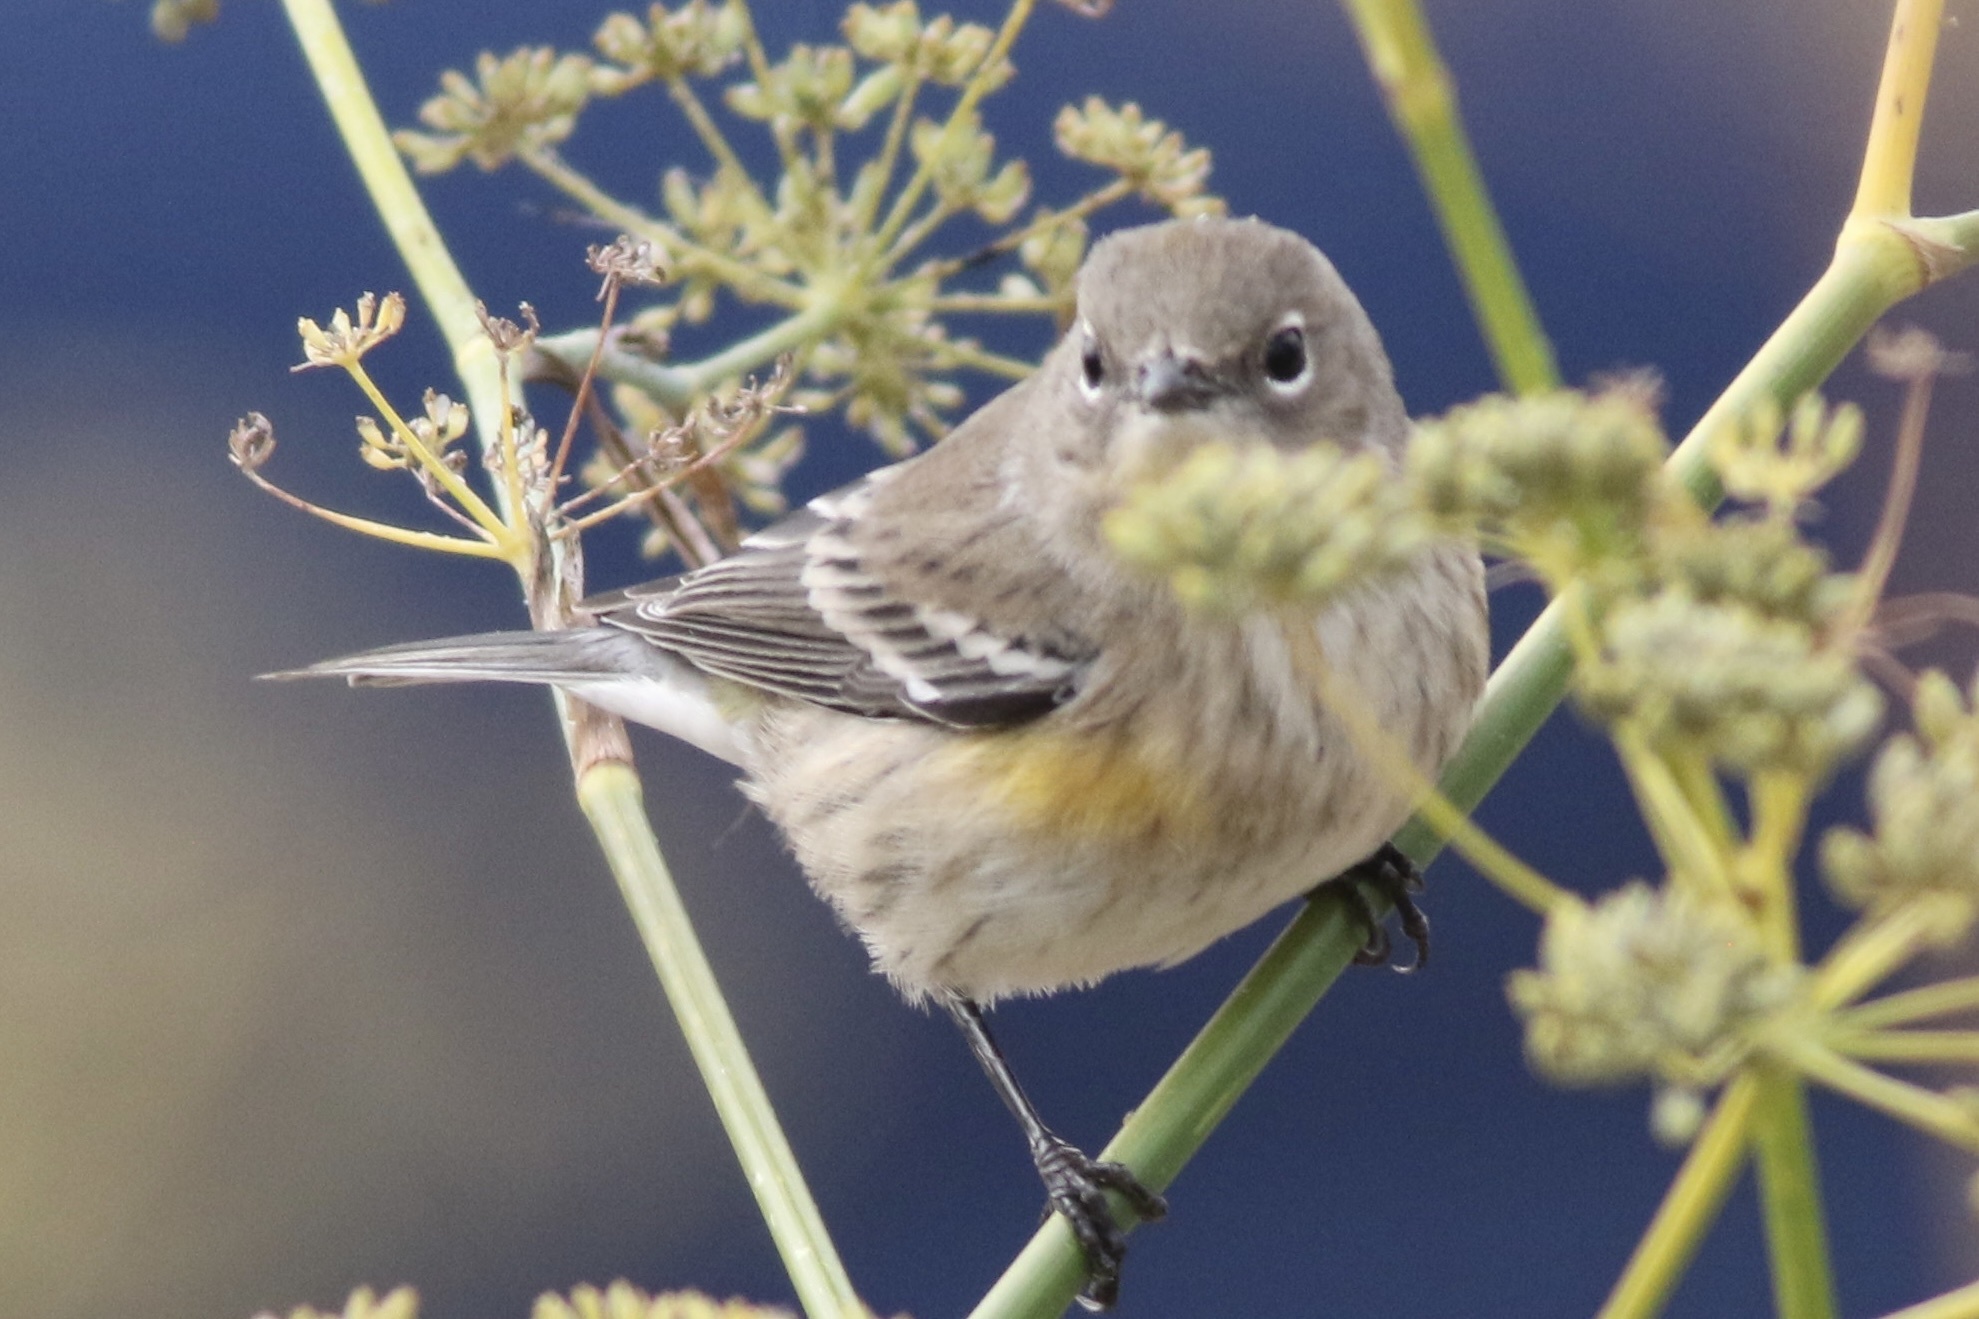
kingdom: Animalia
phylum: Chordata
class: Aves
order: Passeriformes
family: Parulidae
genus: Setophaga
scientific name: Setophaga coronata
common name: Myrtle warbler
